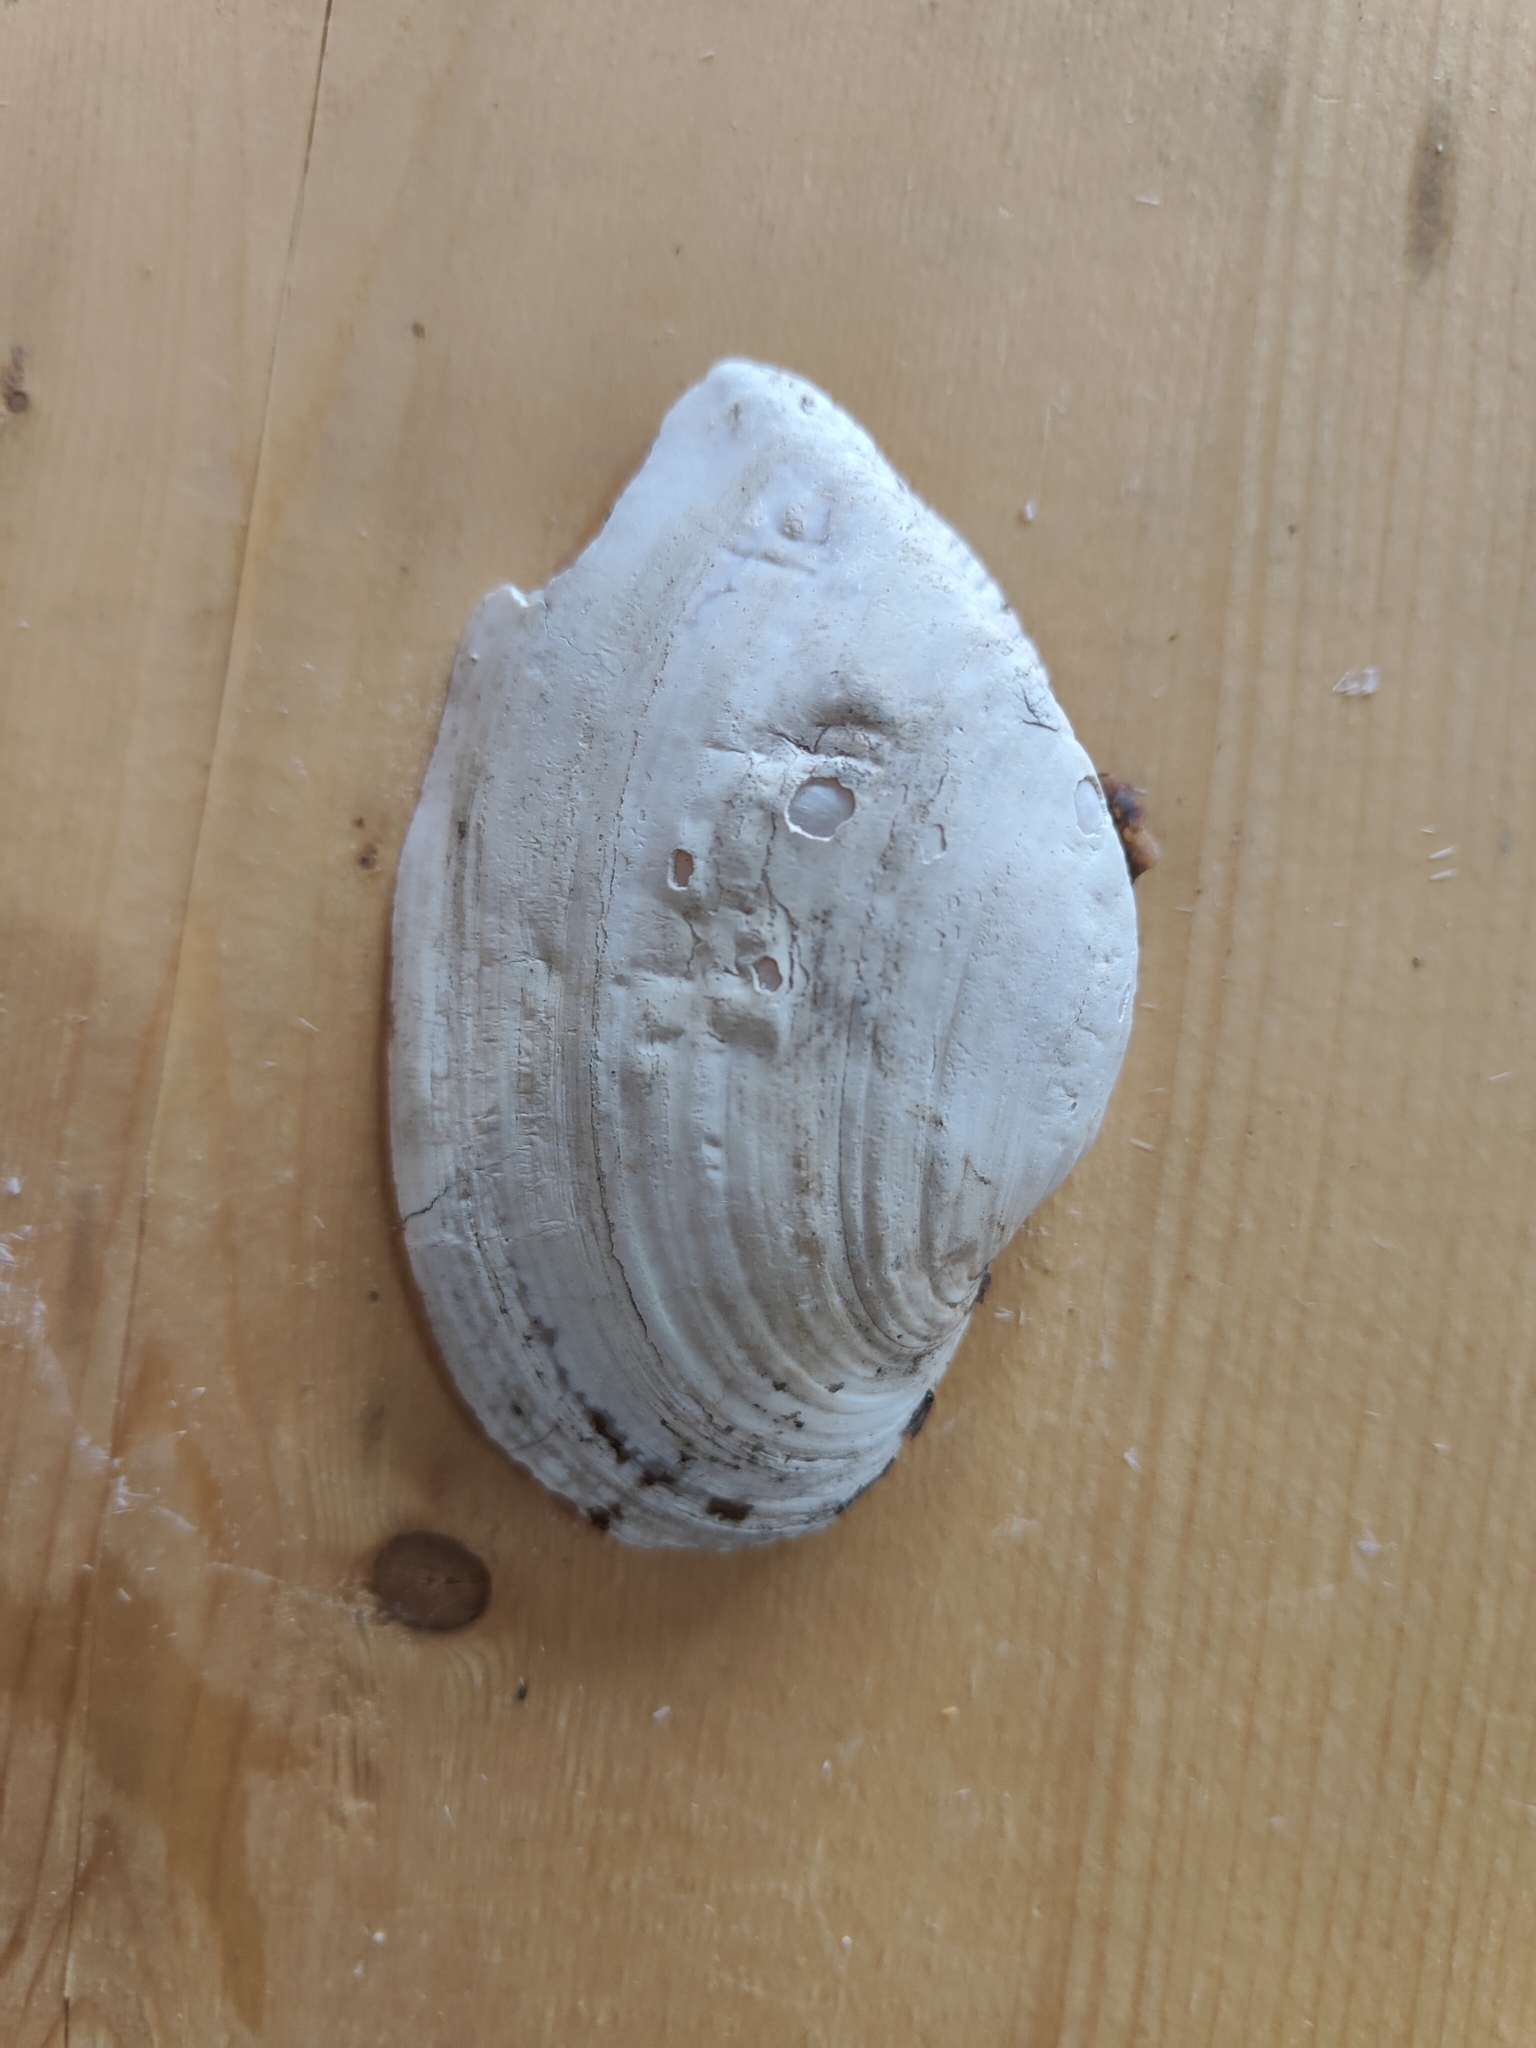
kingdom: Animalia
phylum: Mollusca
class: Bivalvia
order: Unionida
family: Unionidae
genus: Alasmidonta
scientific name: Alasmidonta marginata
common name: Elktoe
